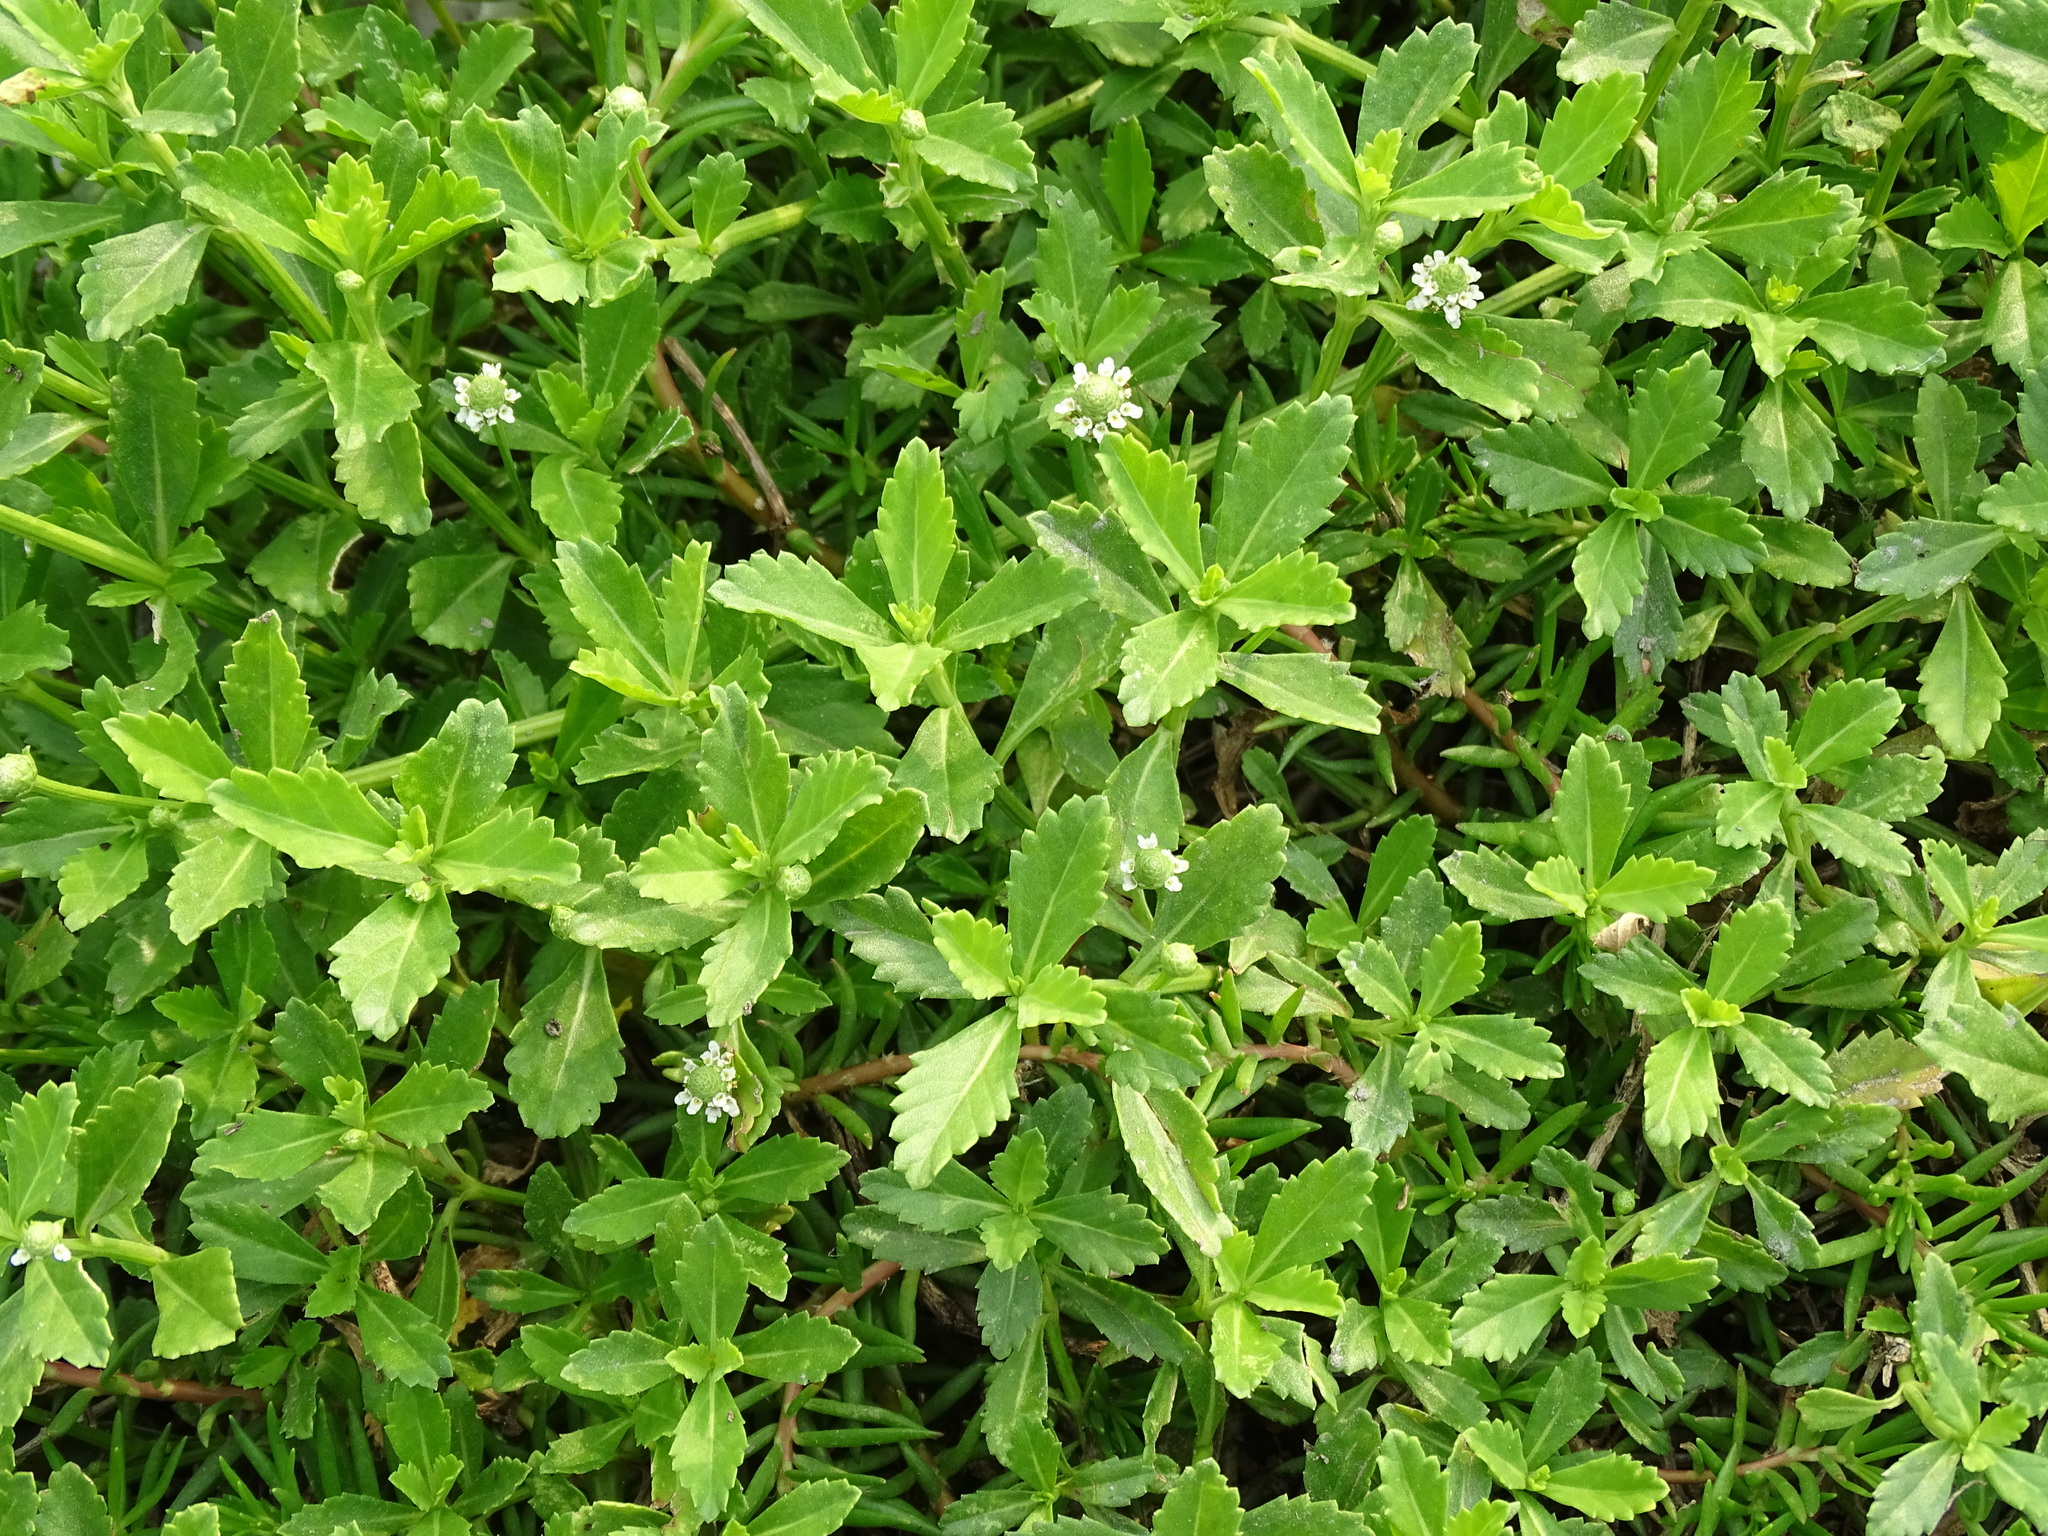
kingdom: Plantae
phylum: Tracheophyta
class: Magnoliopsida
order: Lamiales
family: Verbenaceae
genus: Phyla
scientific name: Phyla nodiflora
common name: Frogfruit
